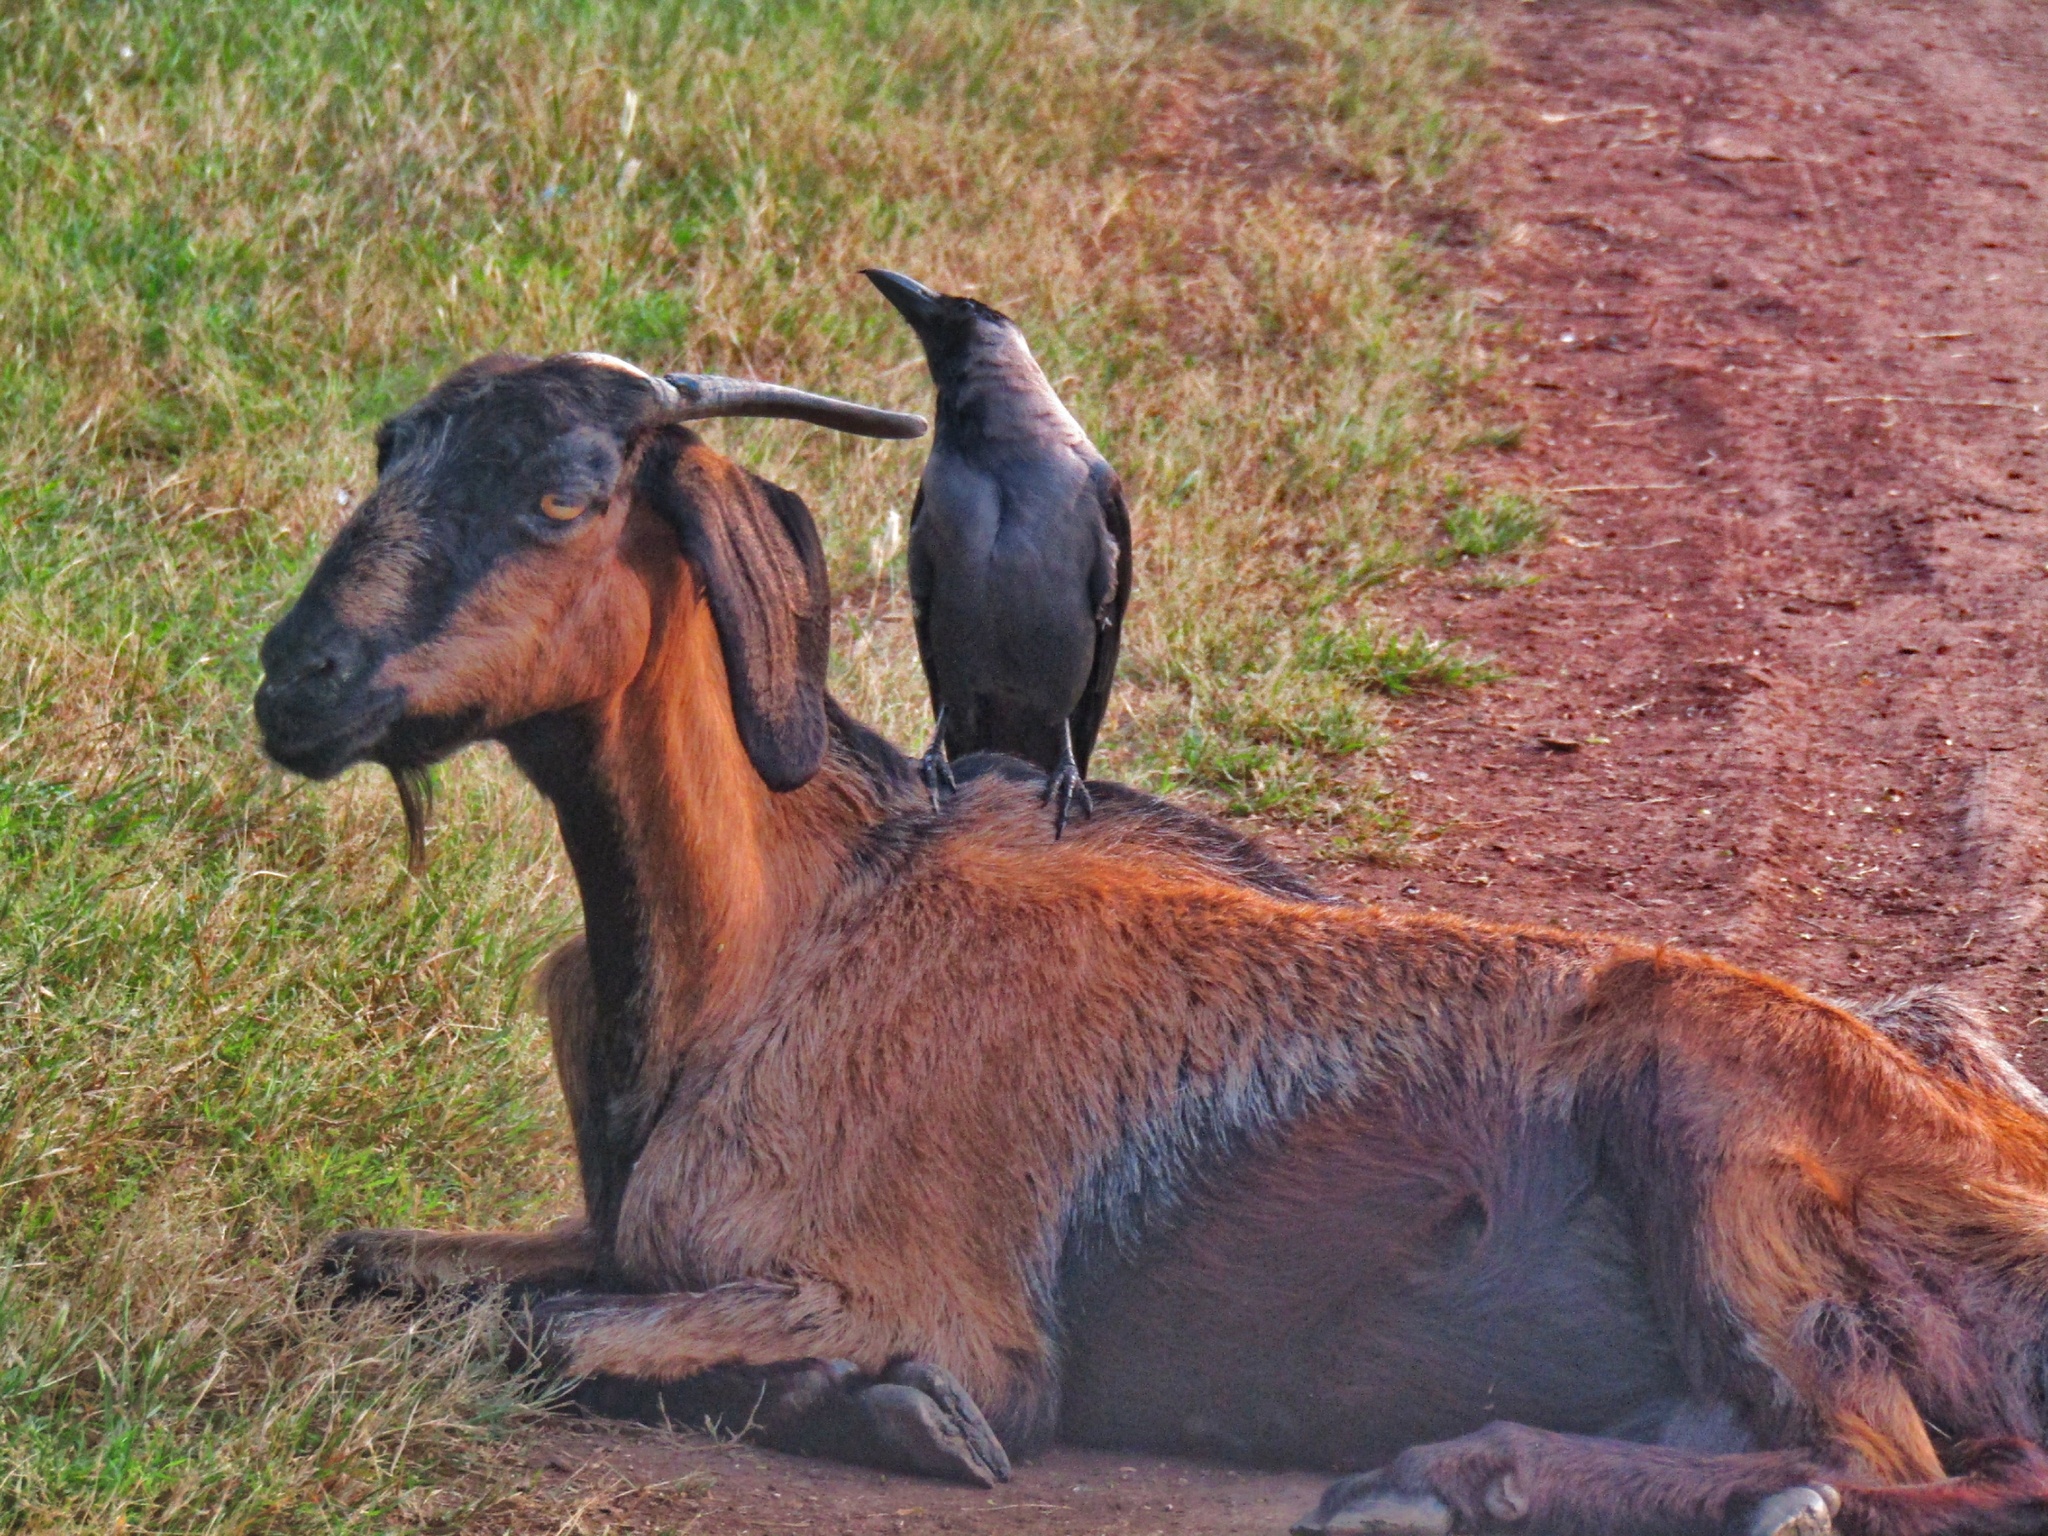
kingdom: Animalia
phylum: Chordata
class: Aves
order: Passeriformes
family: Corvidae
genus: Corvus
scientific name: Corvus splendens
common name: House crow
